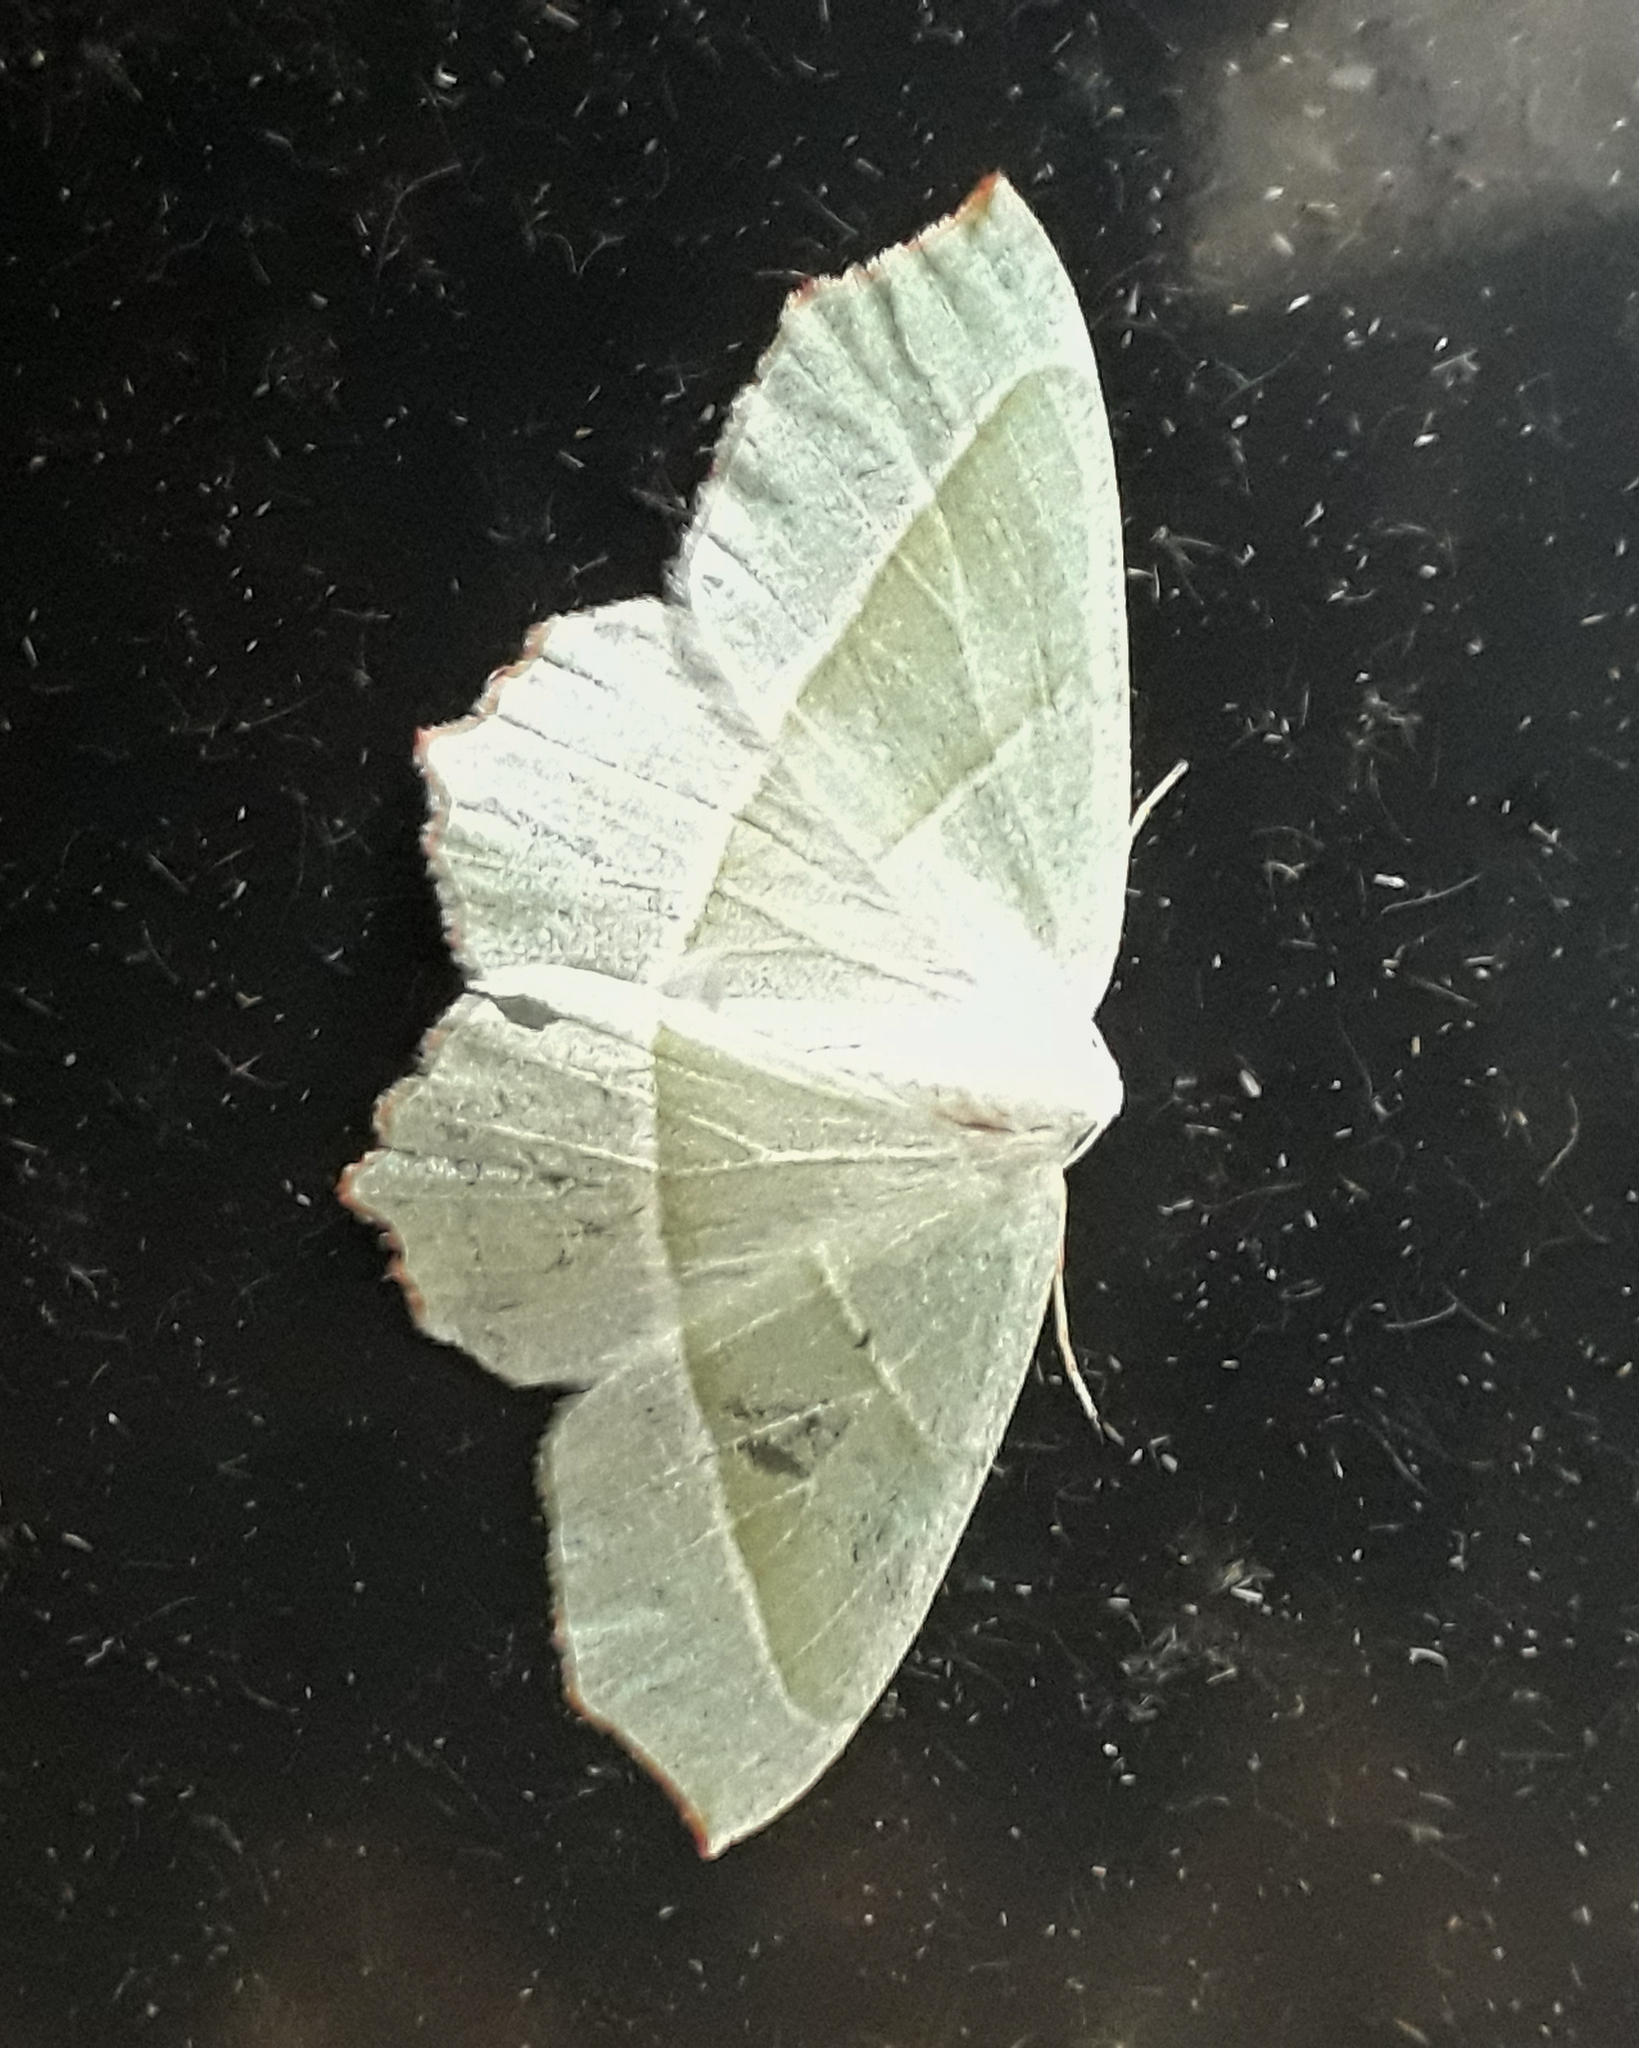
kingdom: Animalia
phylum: Arthropoda
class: Insecta
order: Lepidoptera
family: Geometridae
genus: Campaea
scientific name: Campaea margaritaria
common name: Light emerald
